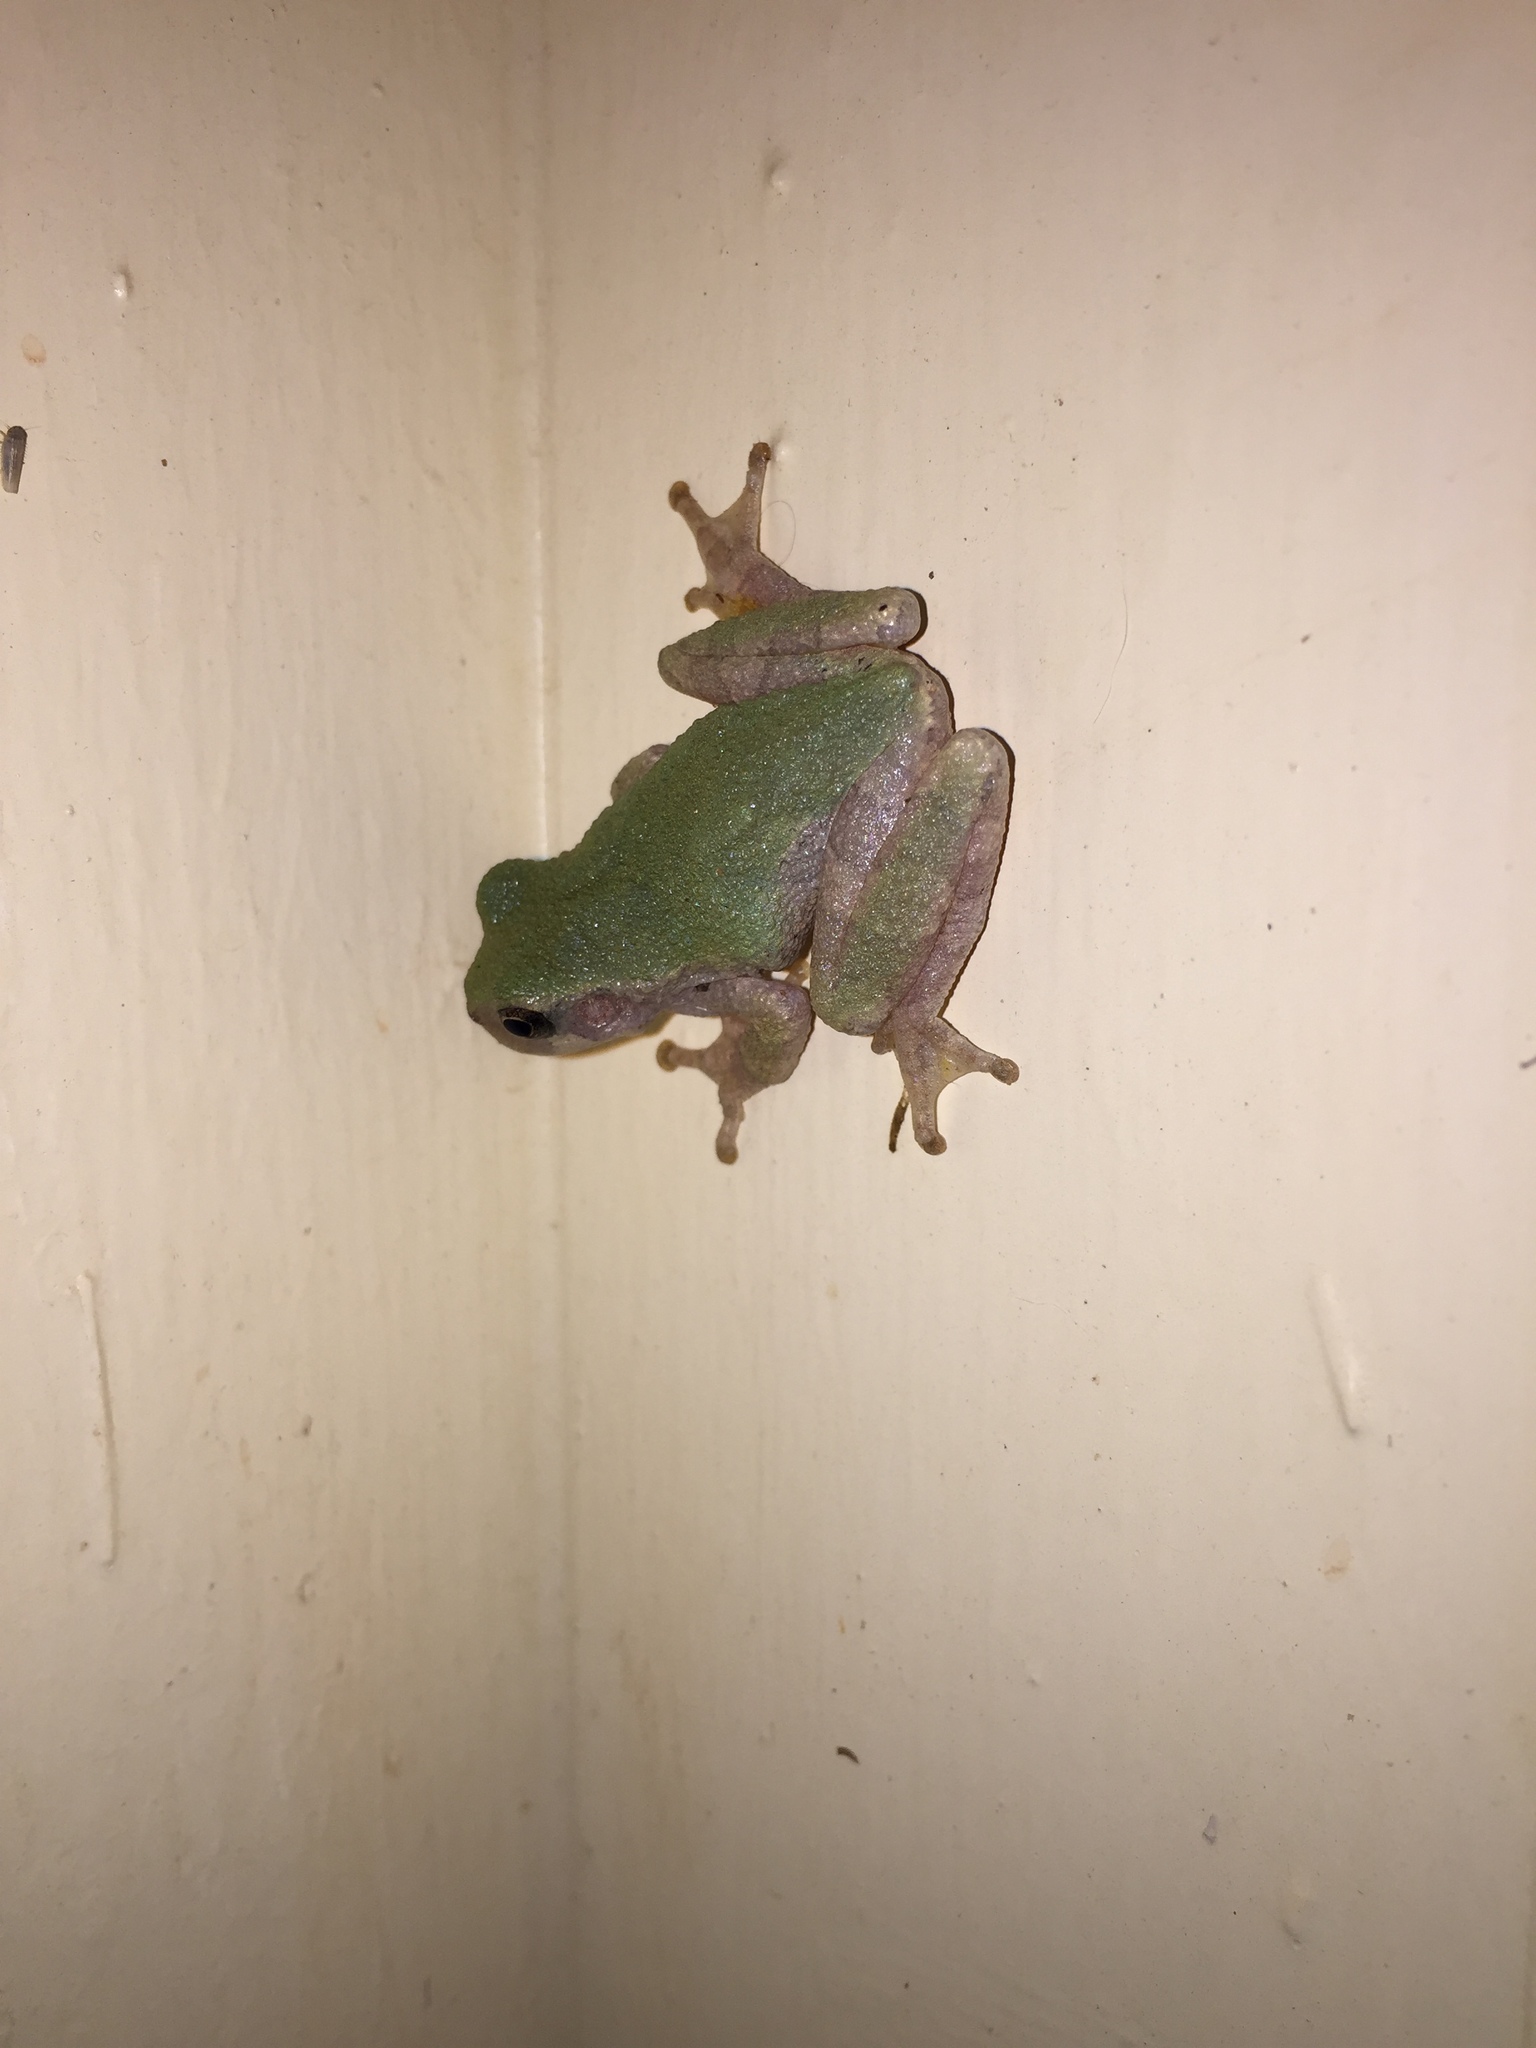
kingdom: Animalia
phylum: Chordata
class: Amphibia
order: Anura
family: Hylidae
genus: Hyla
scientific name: Hyla
